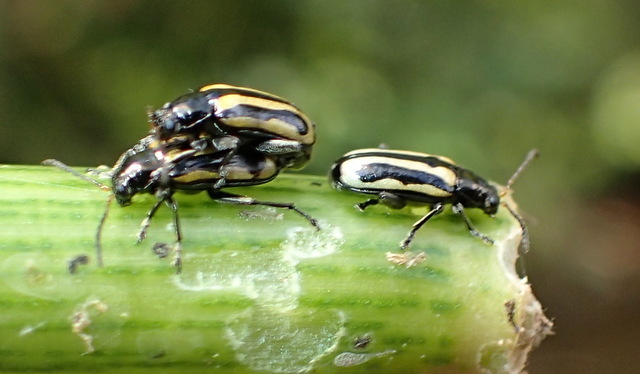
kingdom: Animalia
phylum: Arthropoda
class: Insecta
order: Coleoptera
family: Chrysomelidae
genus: Agasicles
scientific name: Agasicles hygrophila
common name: Alligatorweed flea beetle
